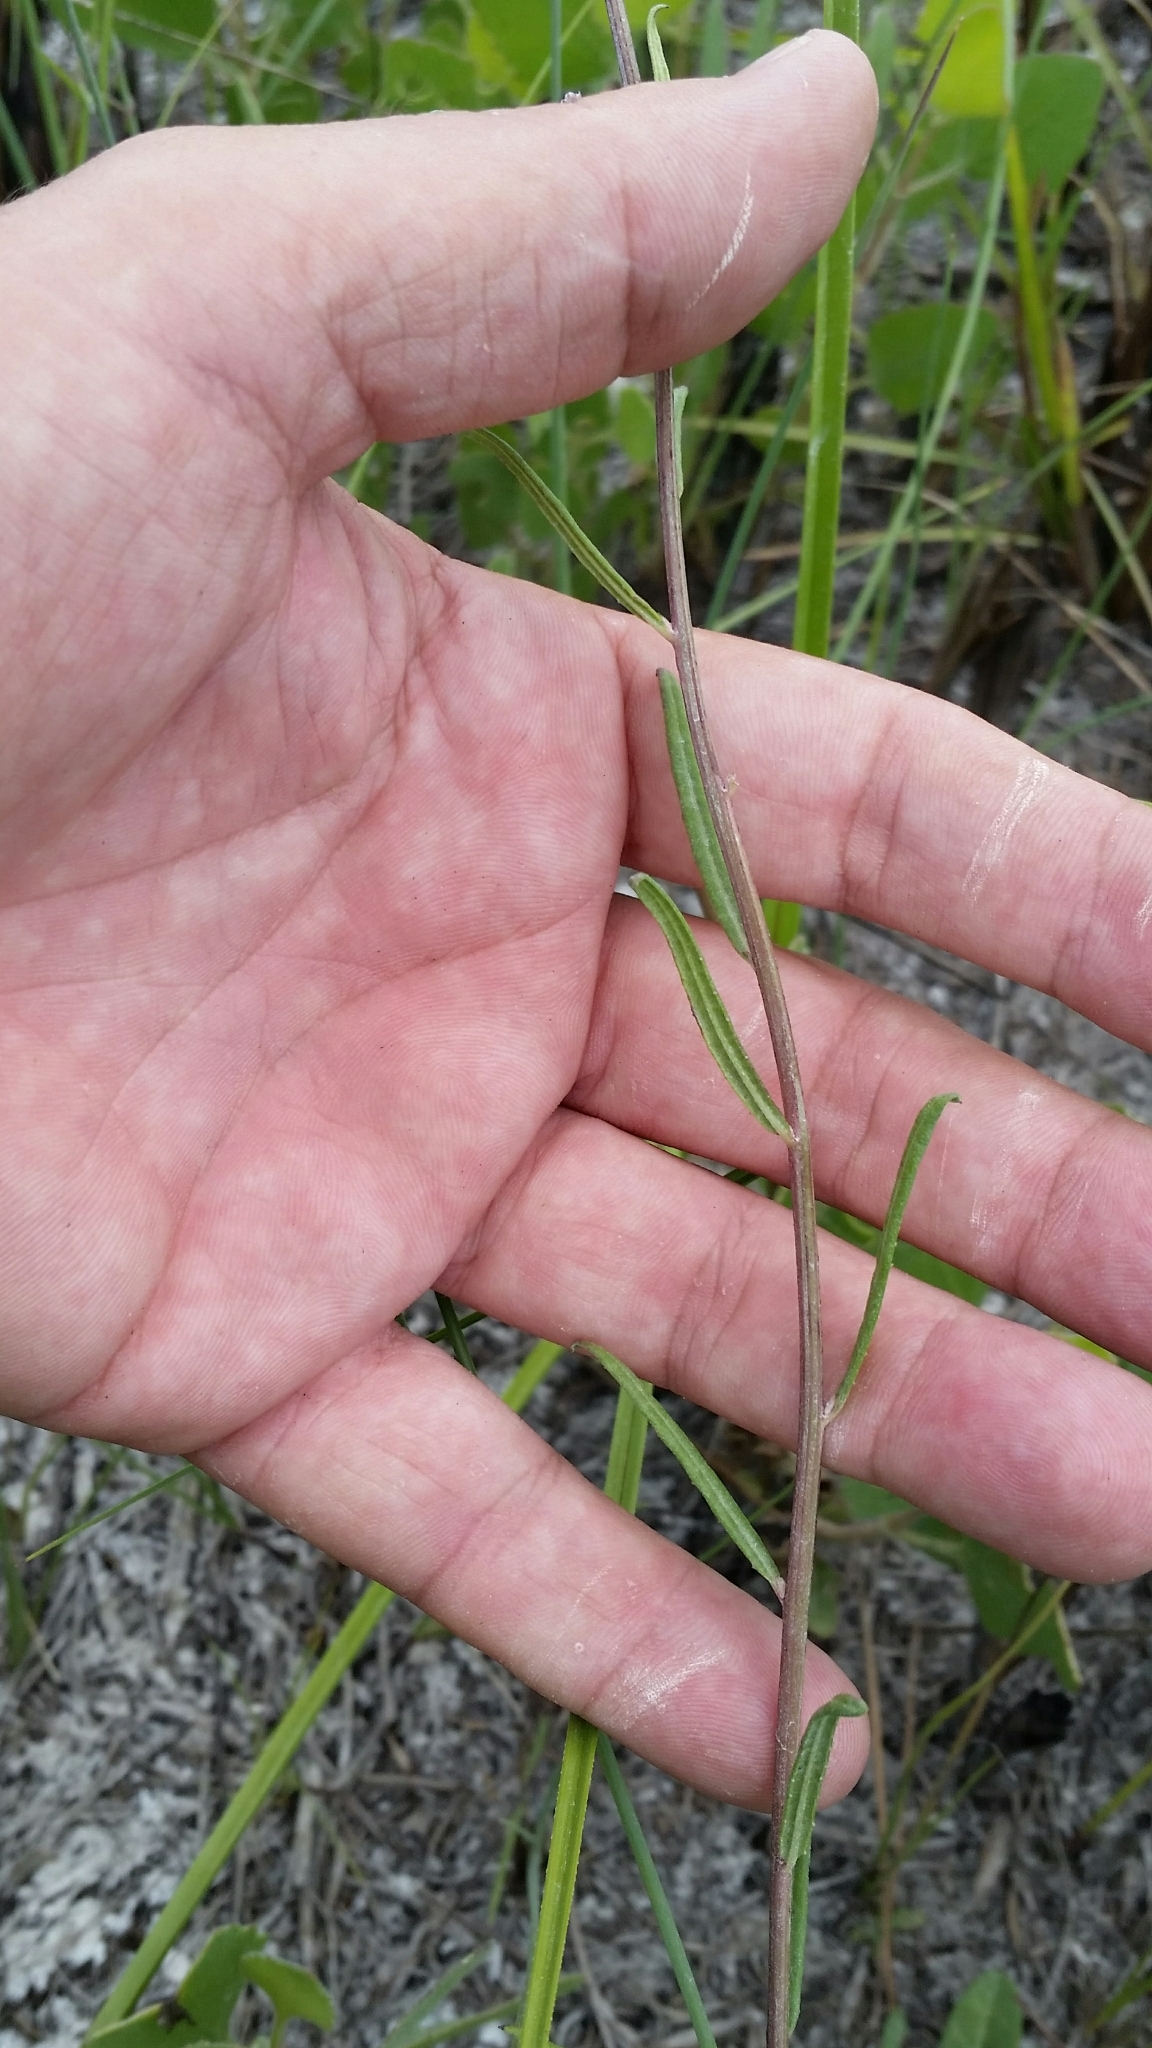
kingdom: Plantae
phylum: Tracheophyta
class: Magnoliopsida
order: Asterales
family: Asteraceae
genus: Vernonia
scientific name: Vernonia blodgettii
